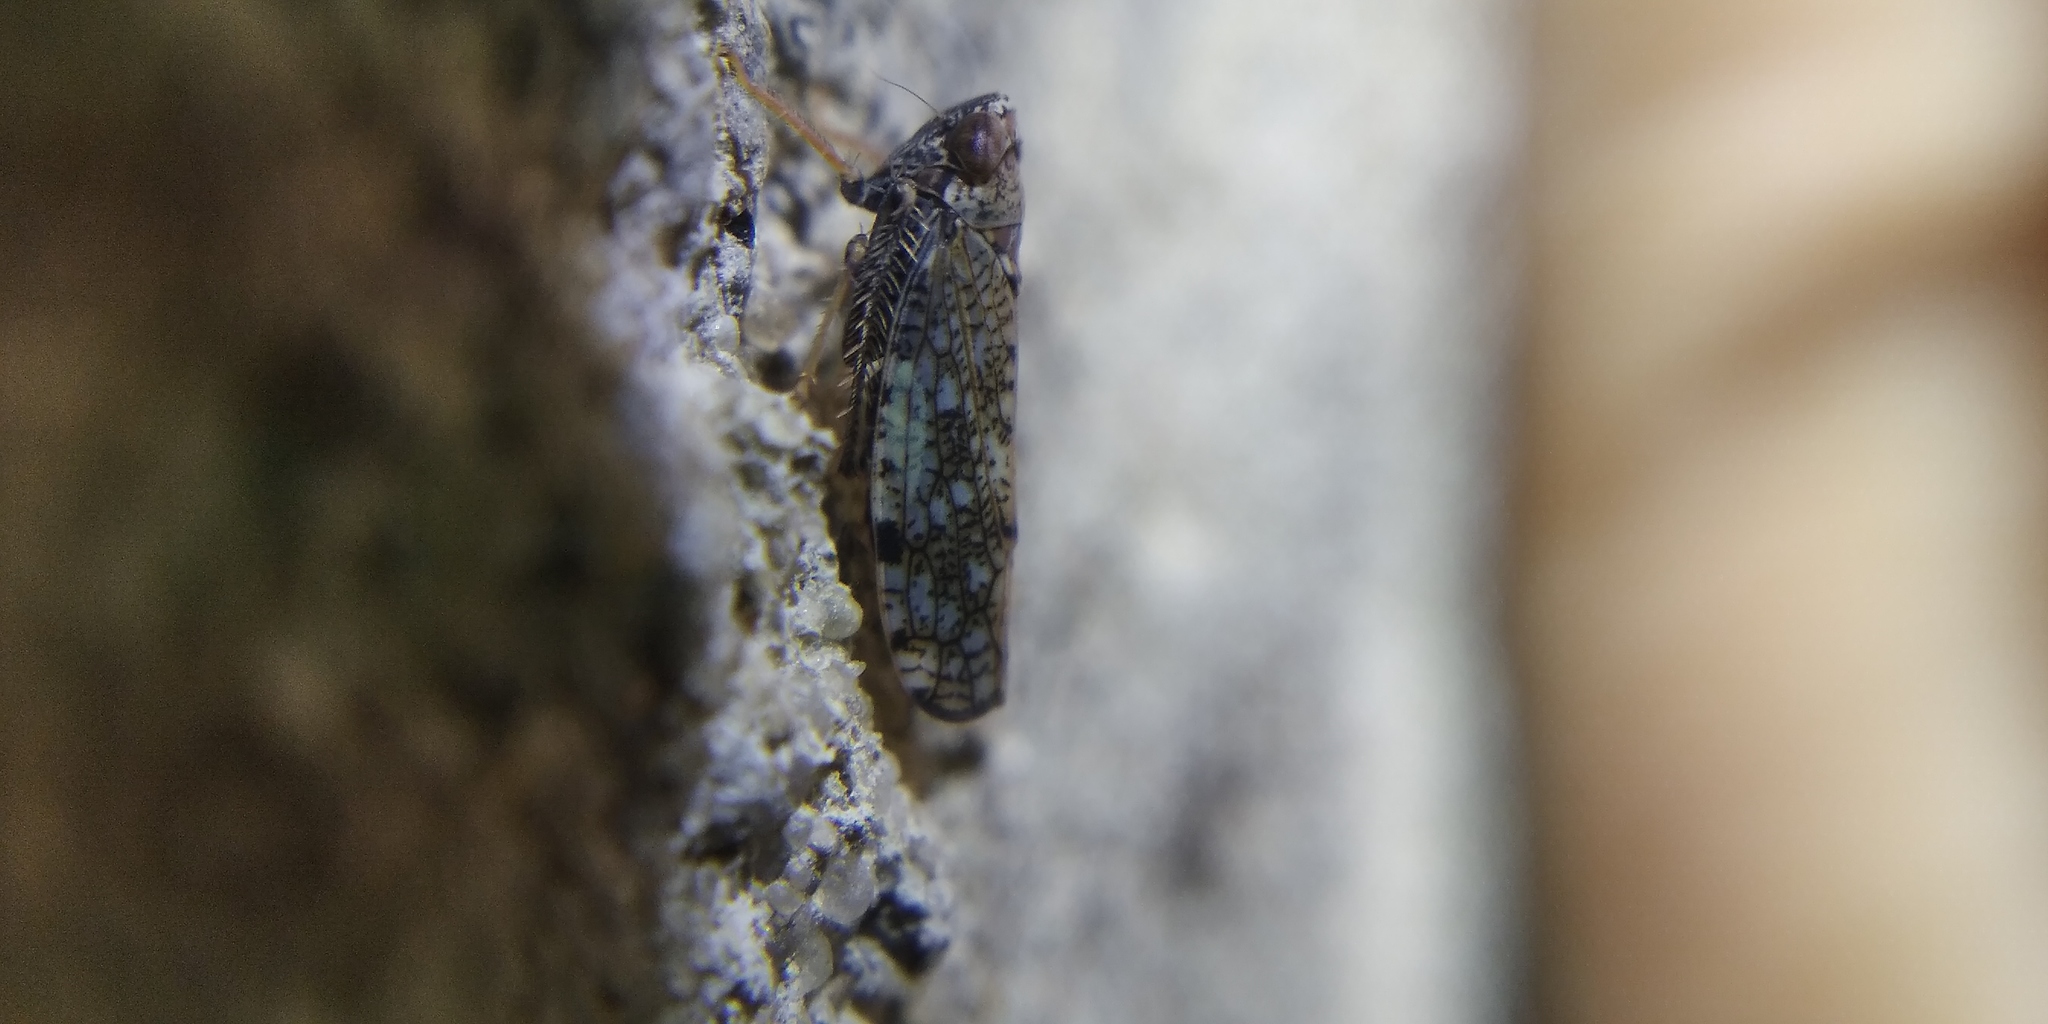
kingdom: Animalia
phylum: Arthropoda
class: Insecta
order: Hemiptera
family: Cicadellidae
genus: Orientus
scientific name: Orientus ishidae
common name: Japanese leafhopper
